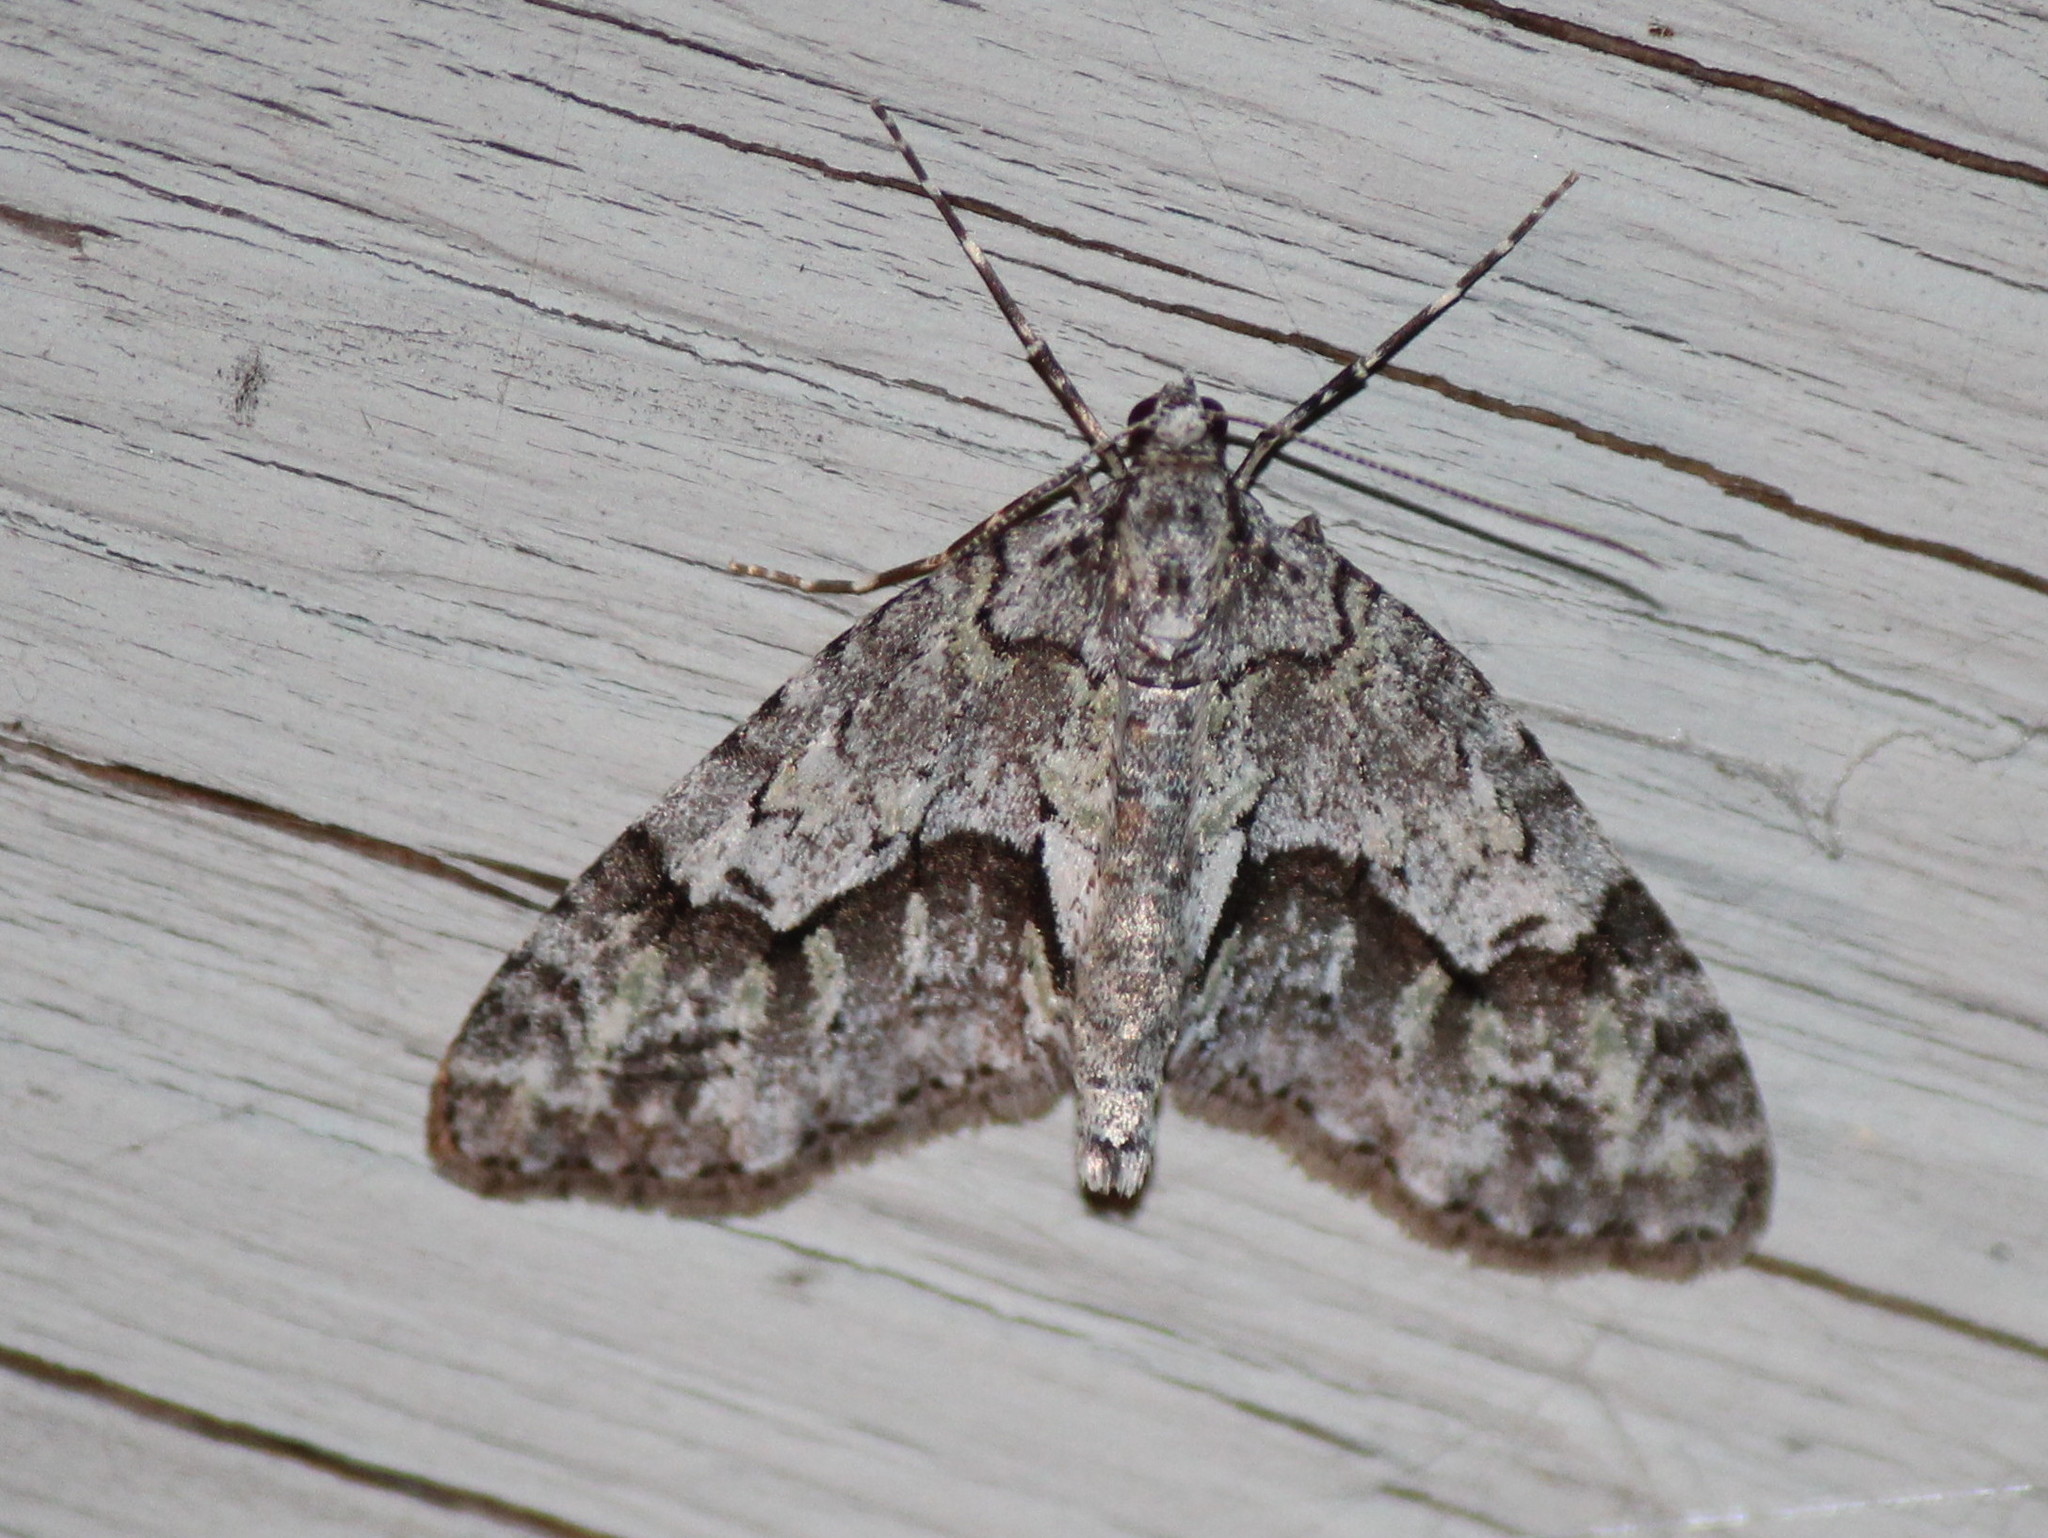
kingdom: Animalia
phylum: Arthropoda
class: Insecta
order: Lepidoptera
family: Geometridae
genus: Cladara
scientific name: Cladara limitaria
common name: Mottled gray carpet
